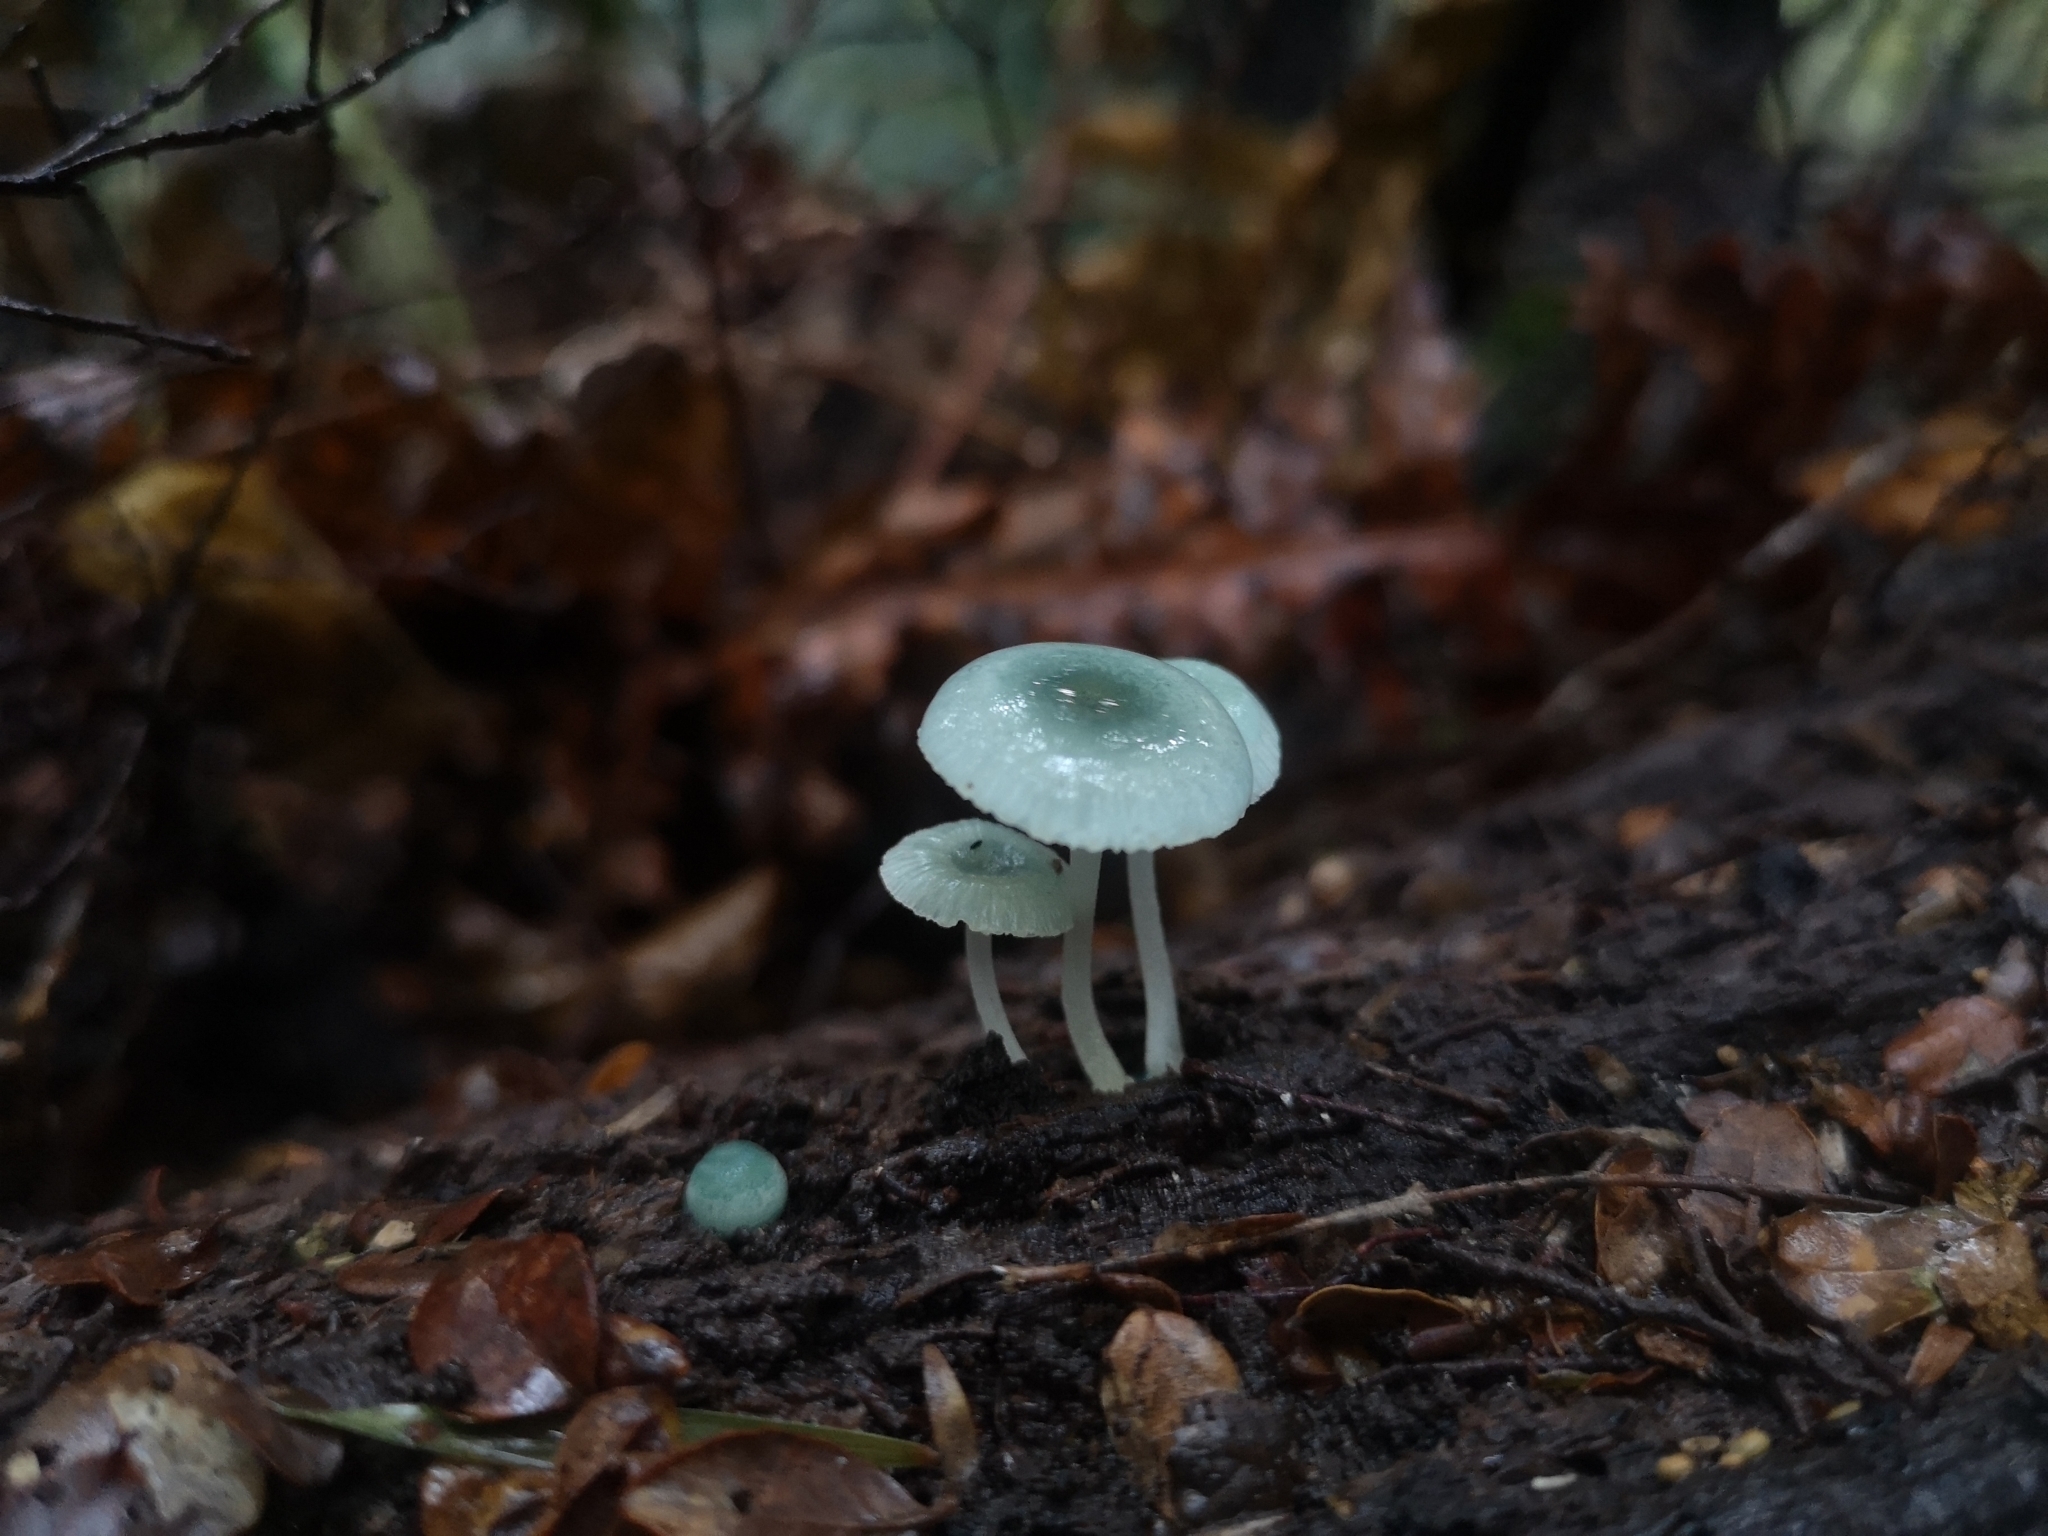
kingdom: Fungi
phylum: Basidiomycota
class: Agaricomycetes
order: Agaricales
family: Mycenaceae
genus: Mycena
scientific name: Mycena interrupta
